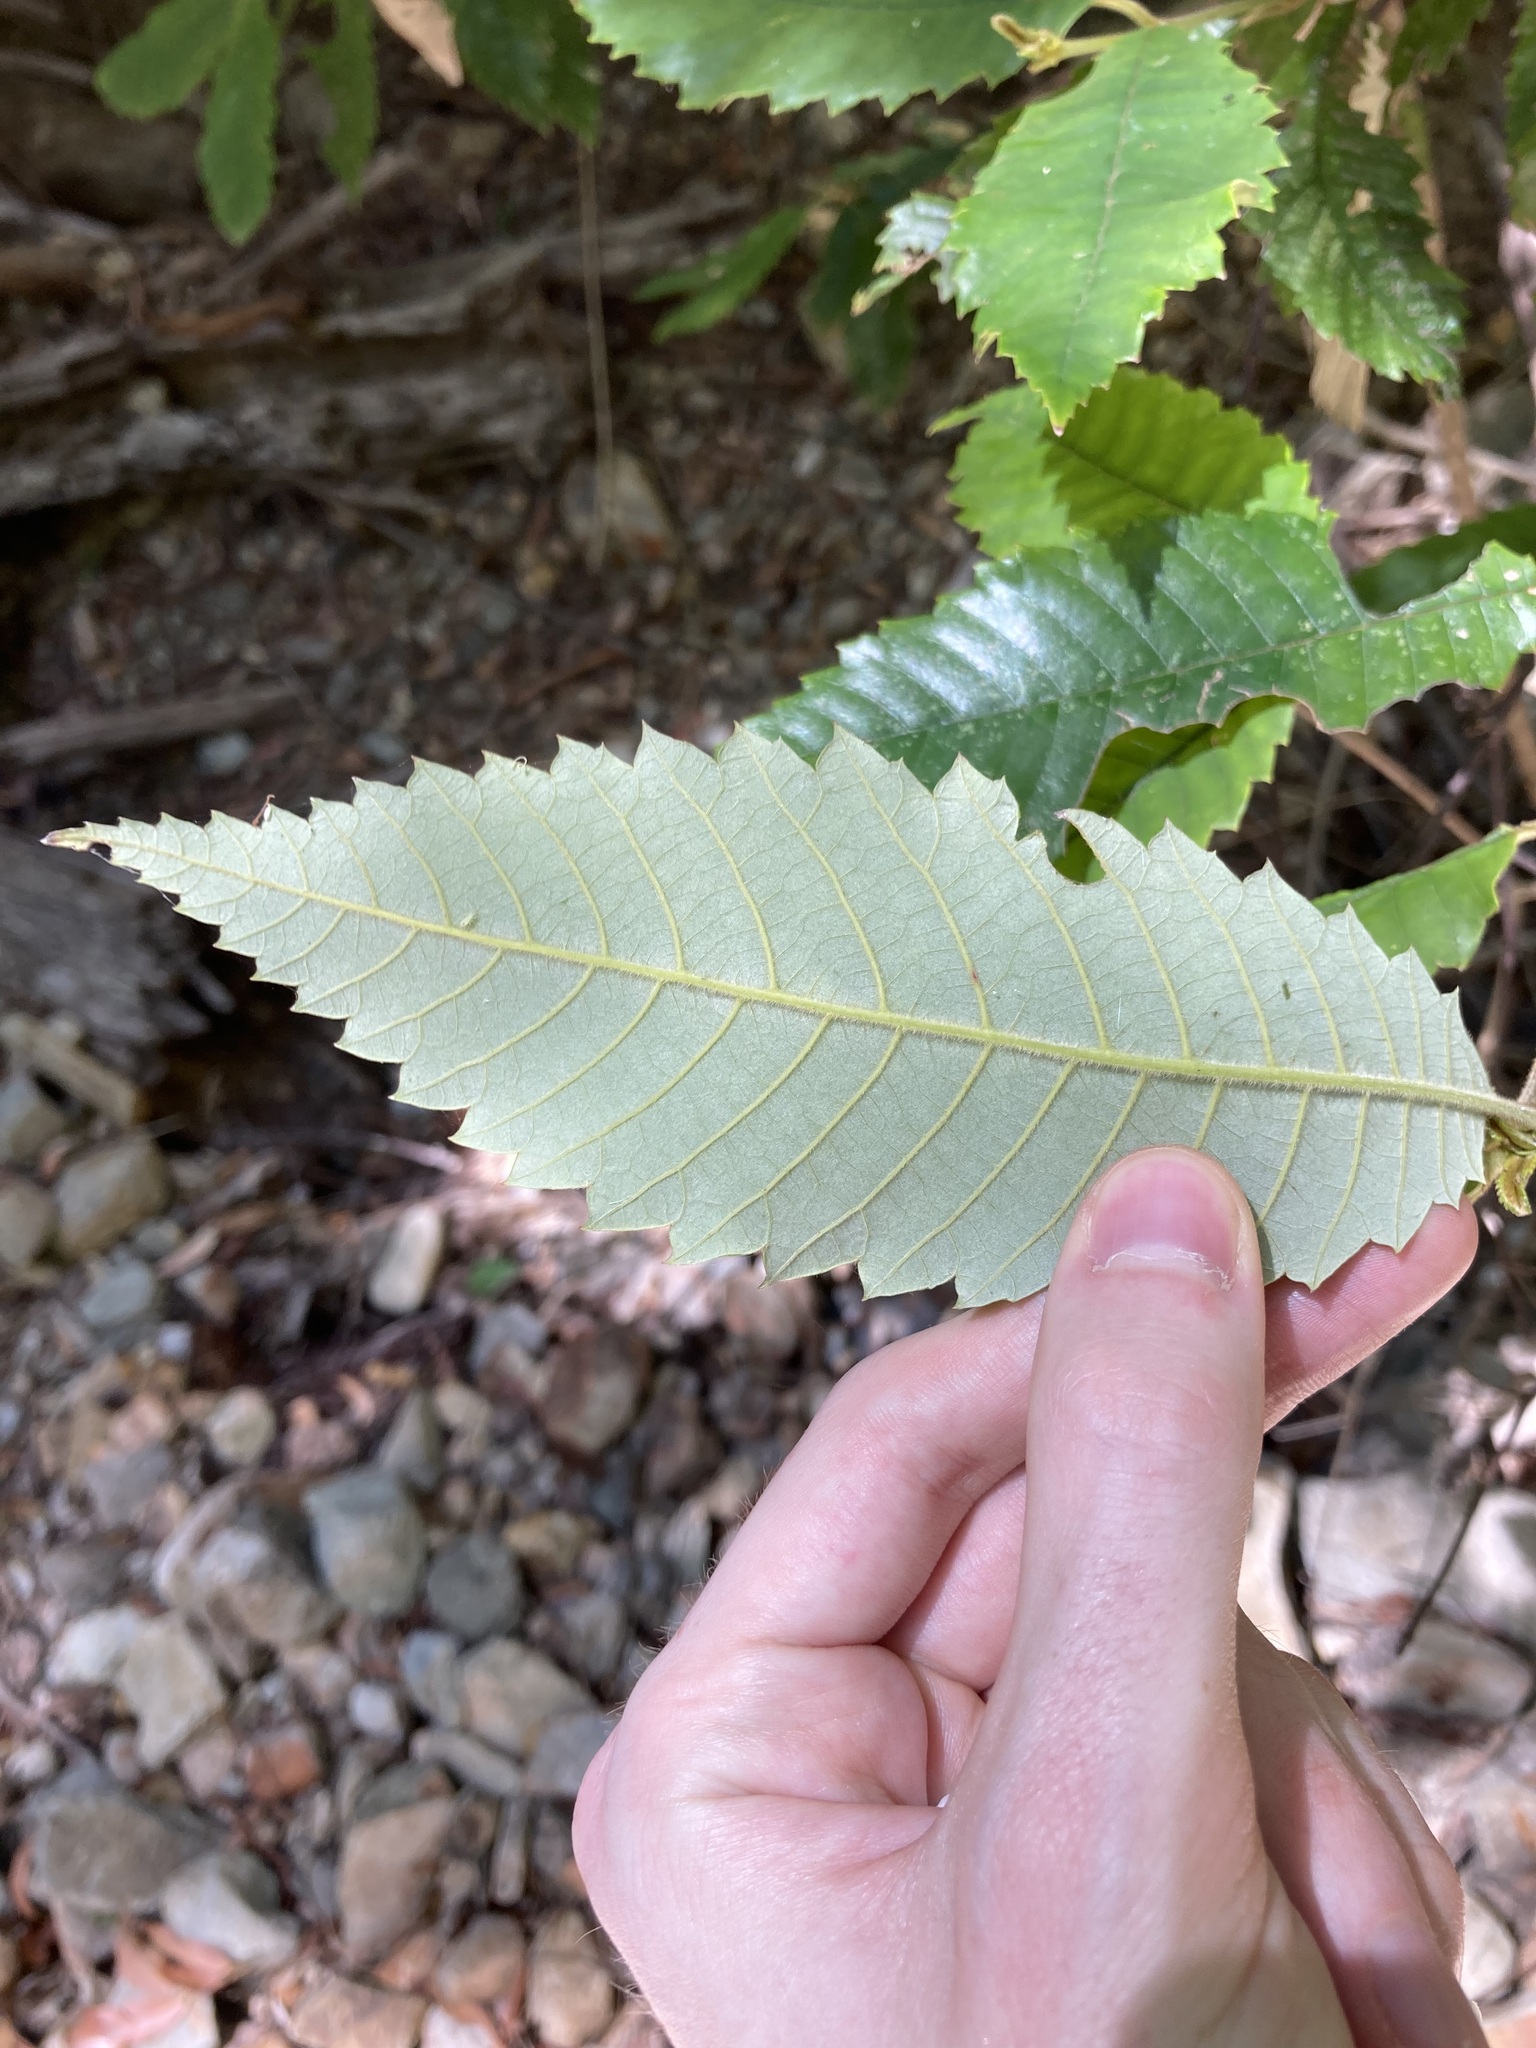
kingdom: Plantae
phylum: Tracheophyta
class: Magnoliopsida
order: Oxalidales
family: Cunoniaceae
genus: Callicoma
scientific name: Callicoma serratifolia
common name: Black wattle
